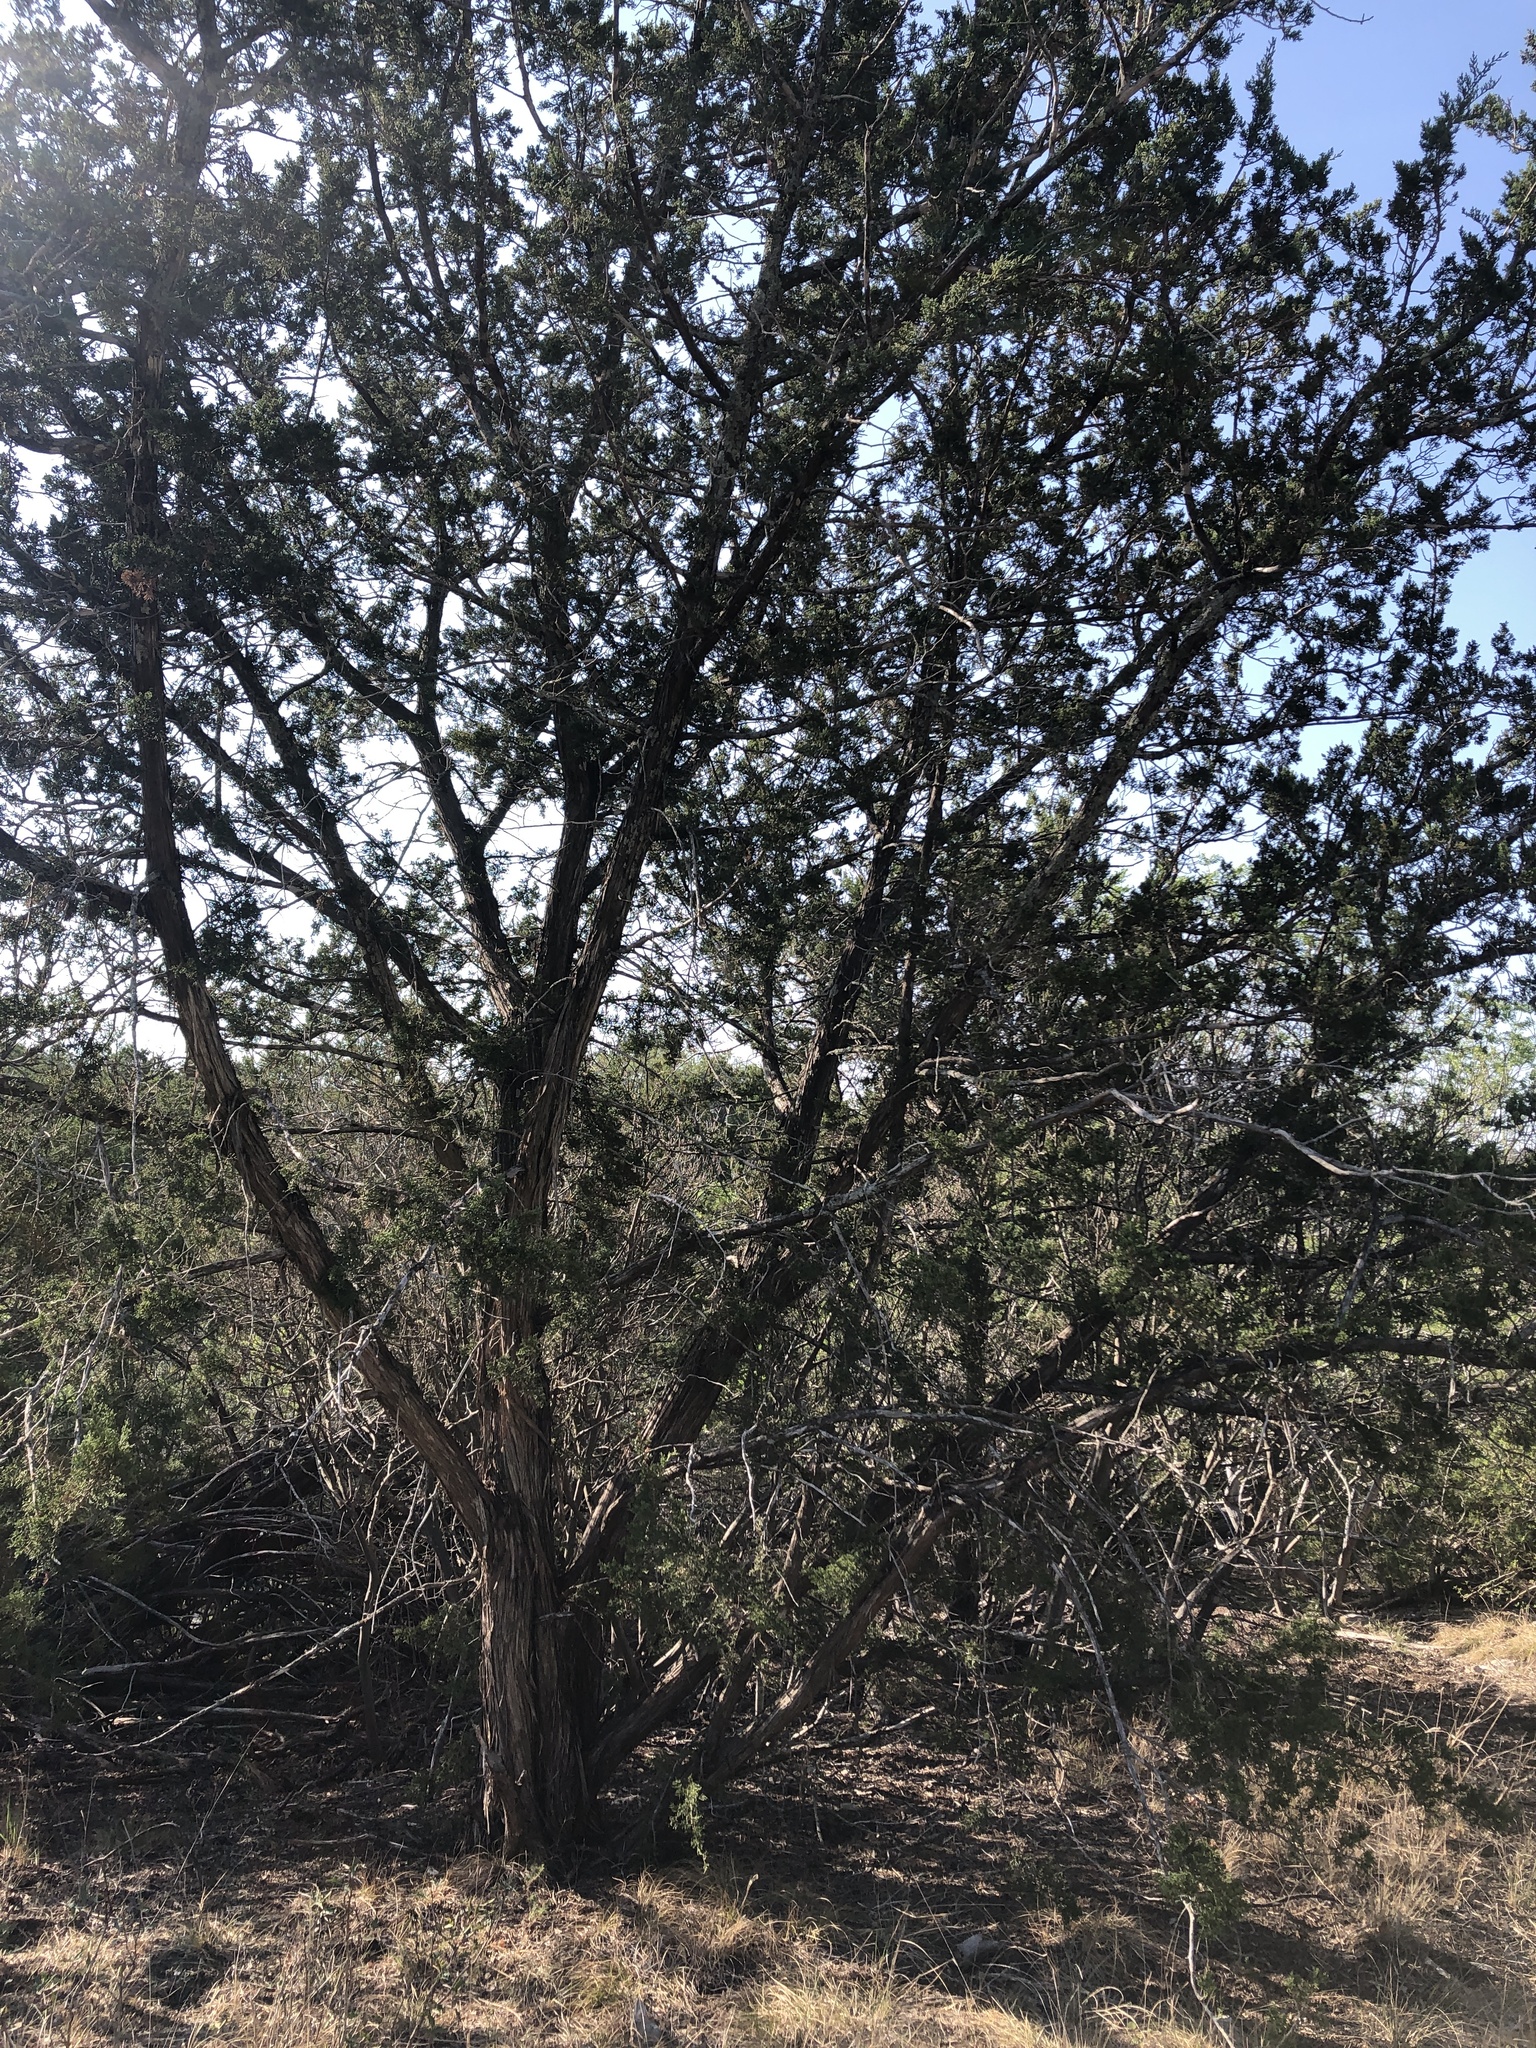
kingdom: Plantae
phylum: Tracheophyta
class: Pinopsida
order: Pinales
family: Cupressaceae
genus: Juniperus
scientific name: Juniperus ashei
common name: Mexican juniper
